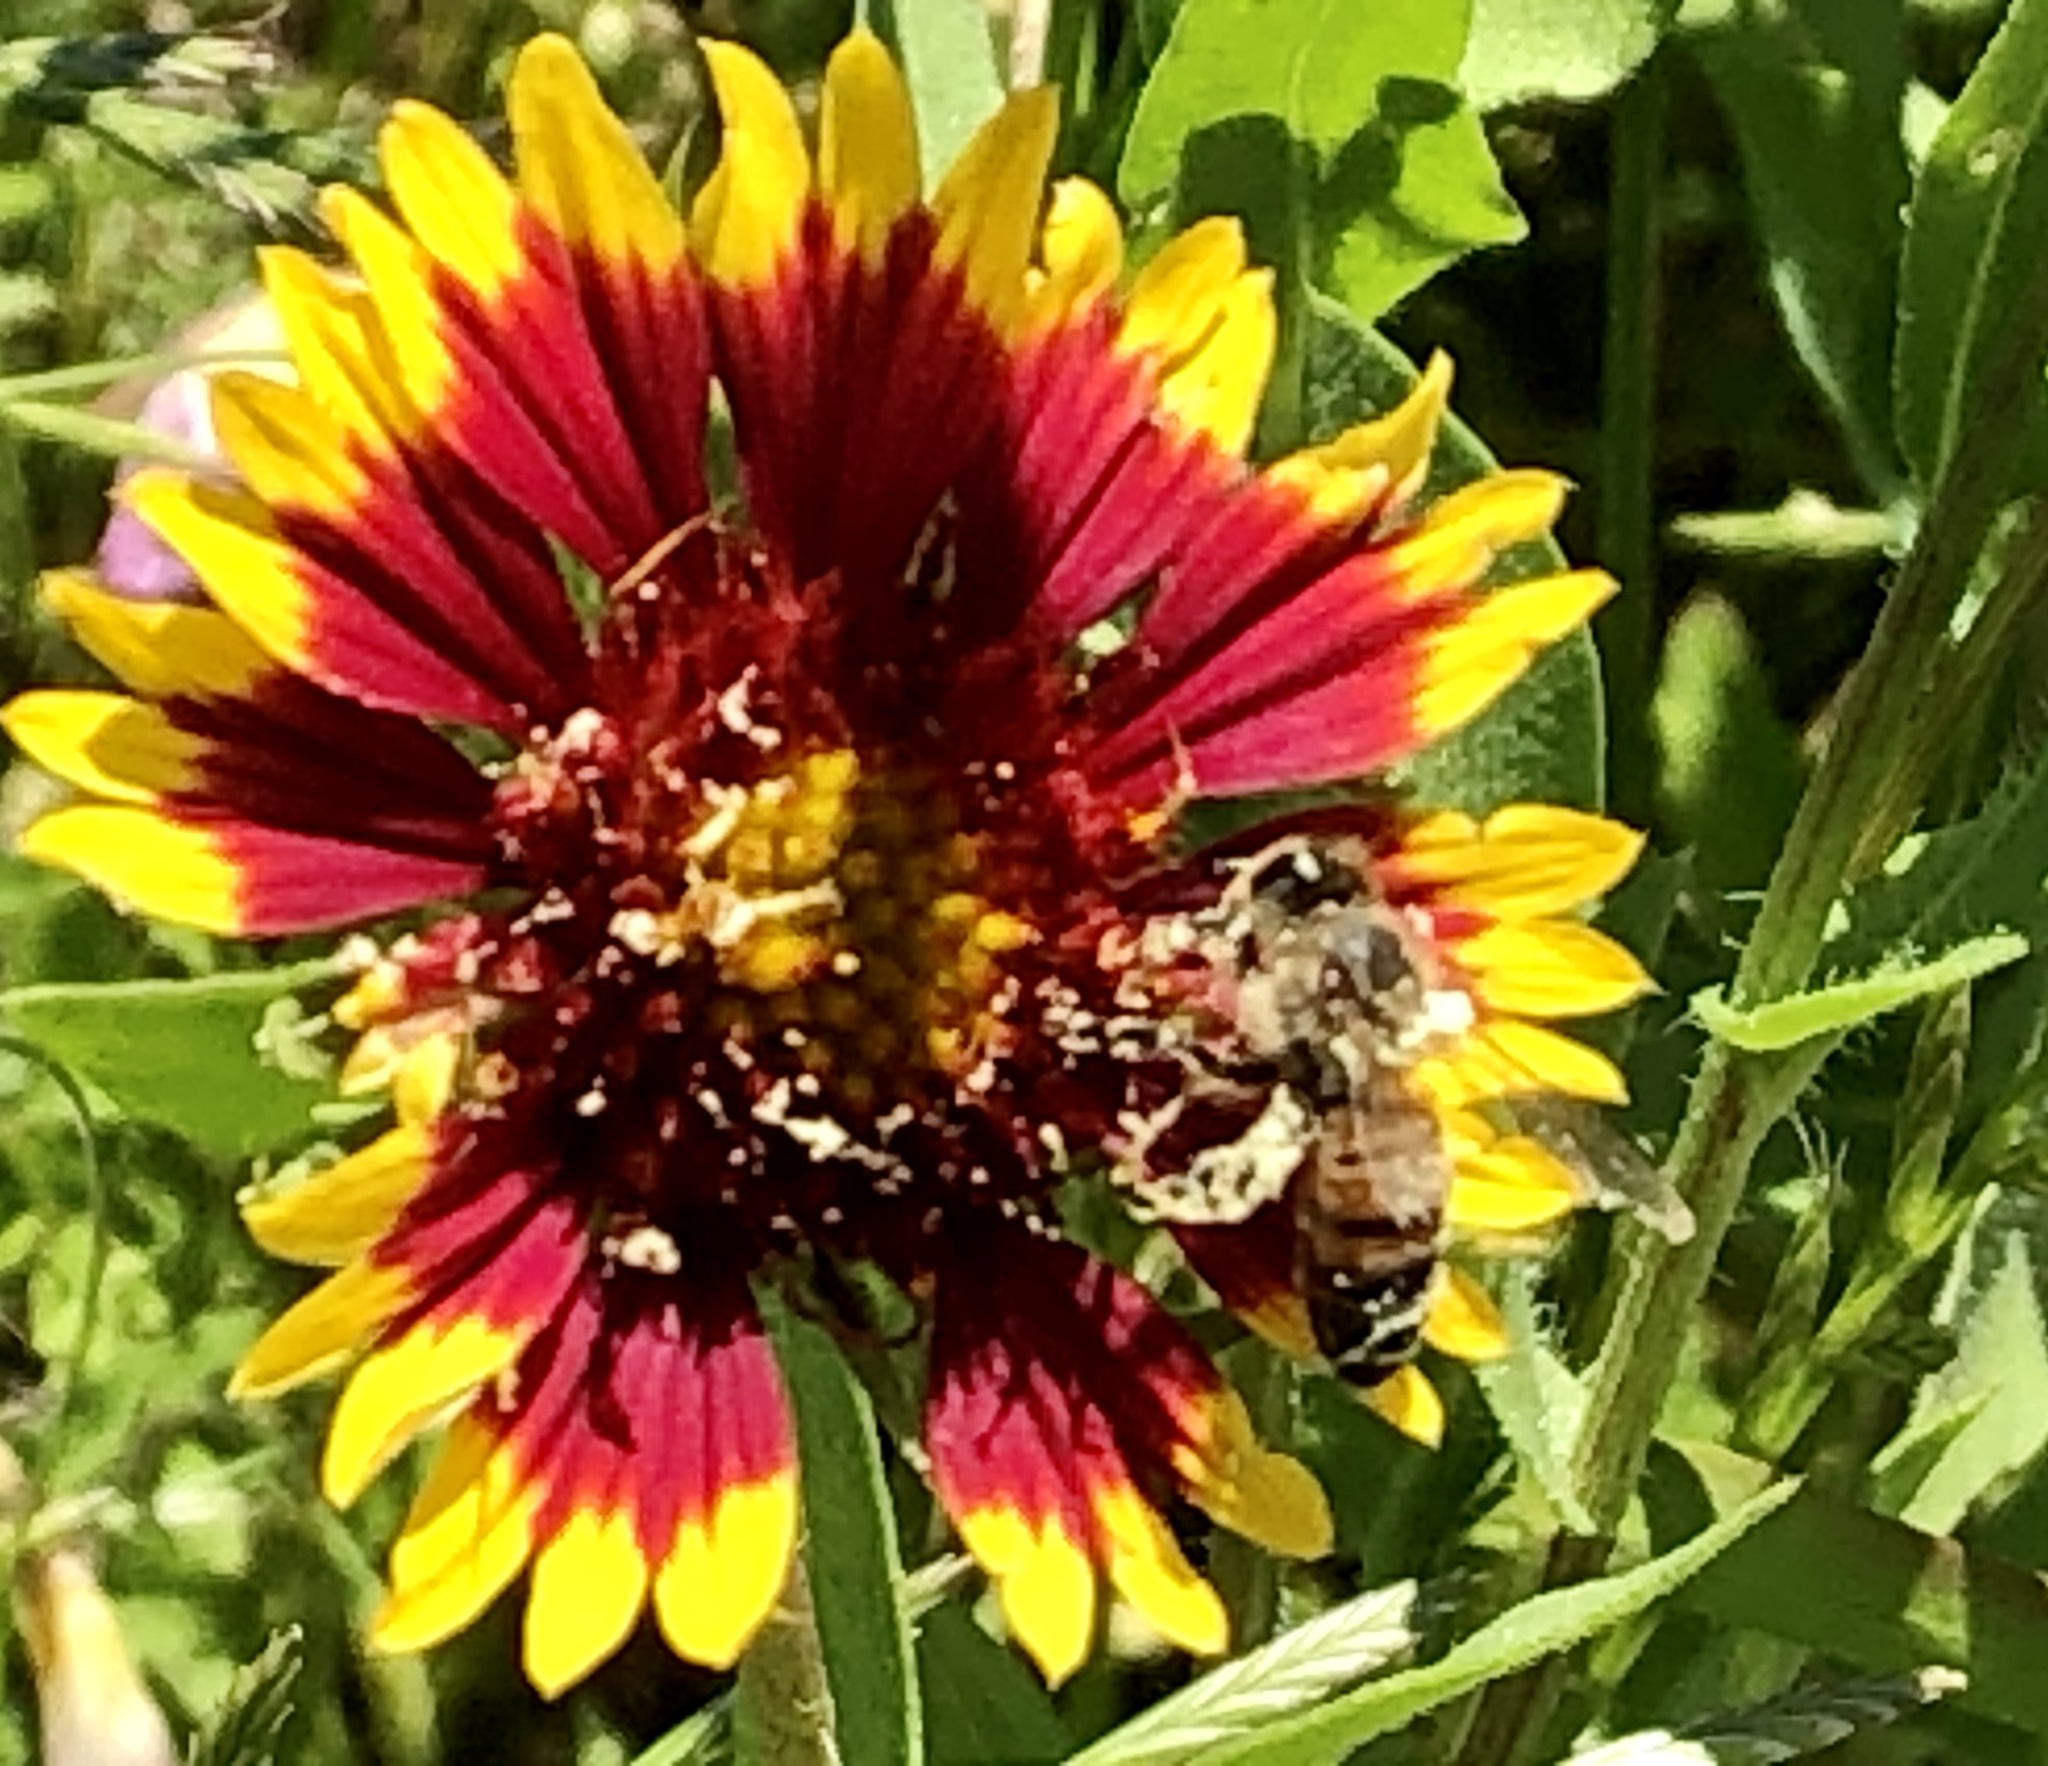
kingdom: Plantae
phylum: Tracheophyta
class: Magnoliopsida
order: Asterales
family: Asteraceae
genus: Gaillardia
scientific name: Gaillardia pulchella
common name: Firewheel
